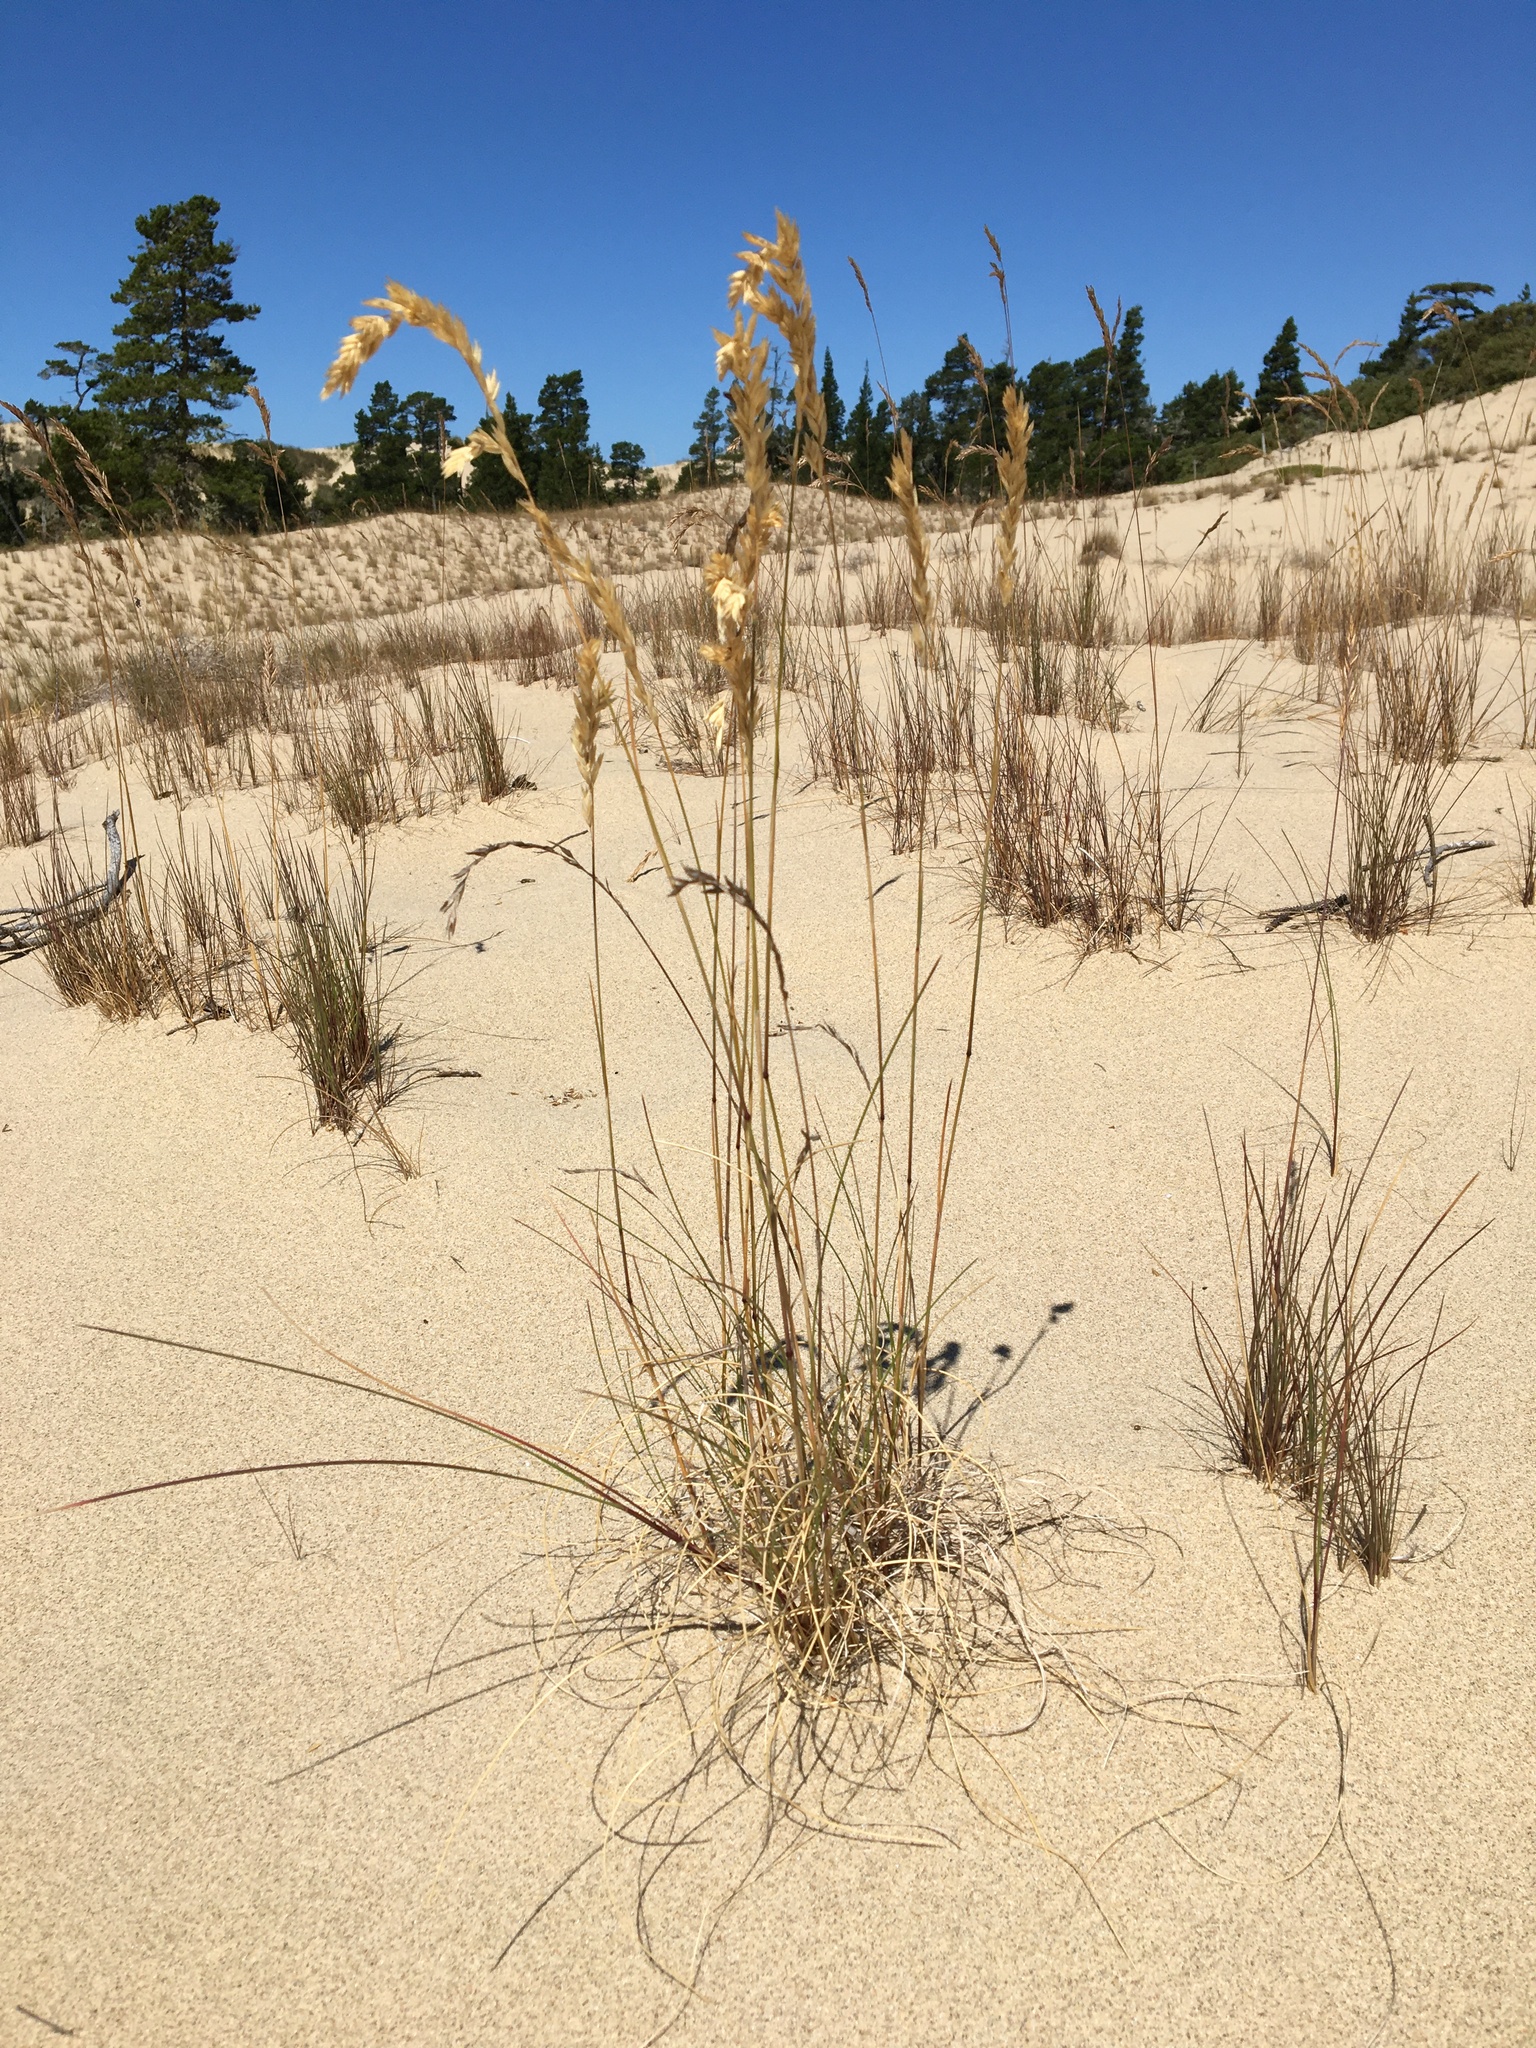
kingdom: Plantae
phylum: Tracheophyta
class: Liliopsida
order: Poales
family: Poaceae
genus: Poa
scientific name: Poa macrantha
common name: Dune bluegrass
